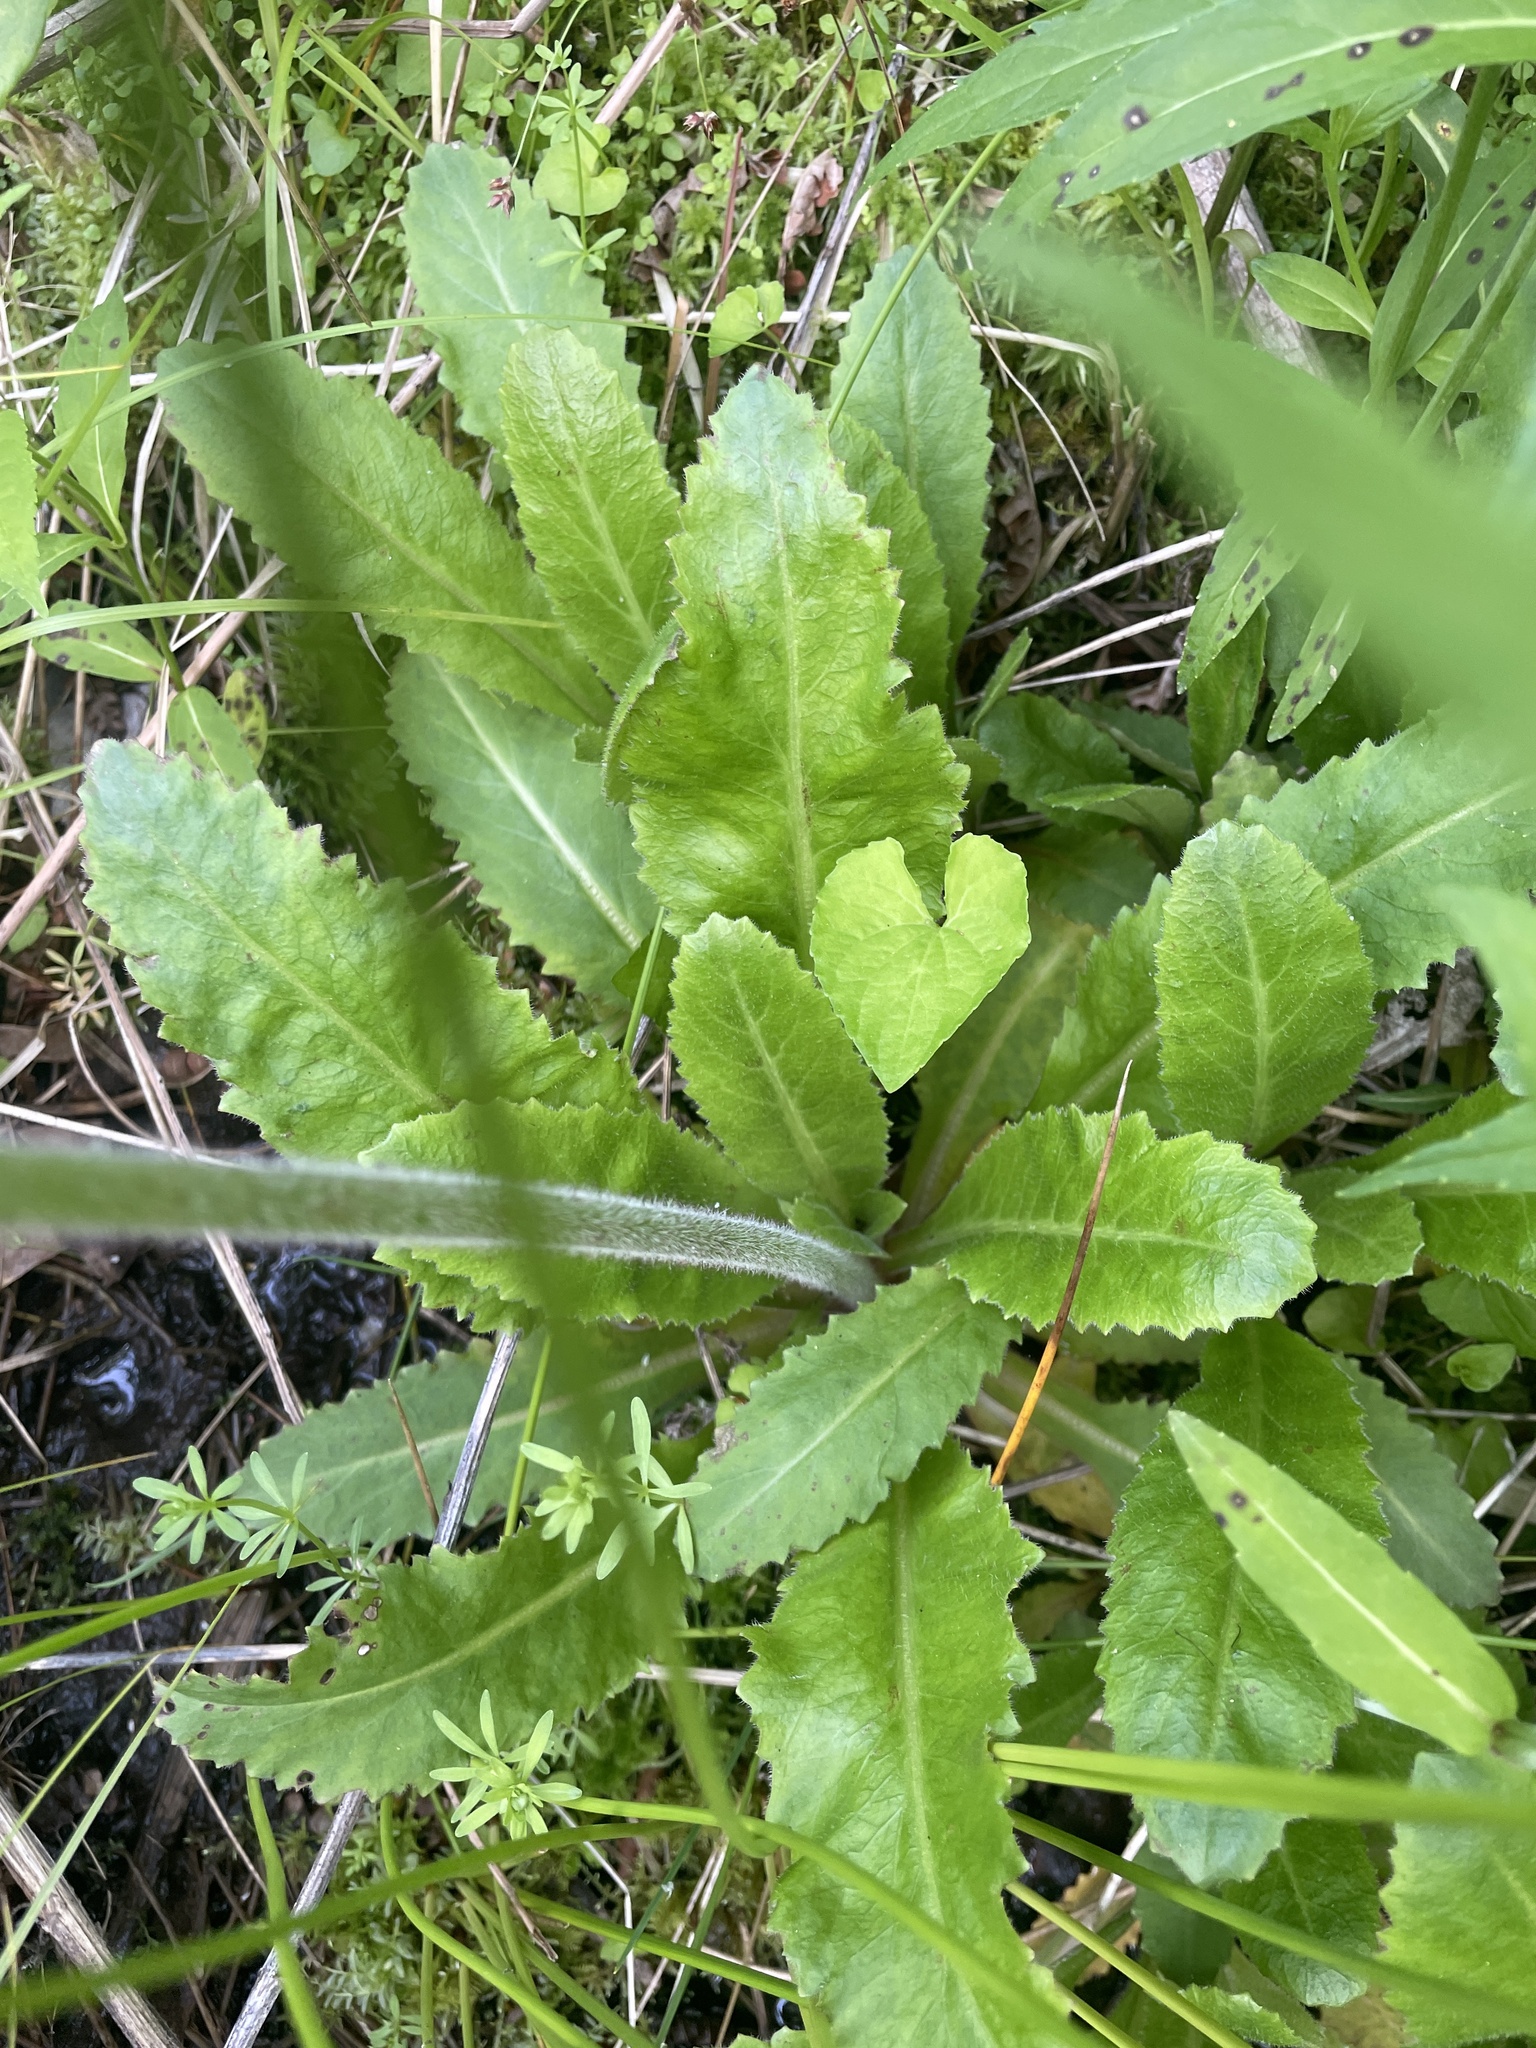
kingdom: Plantae
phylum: Tracheophyta
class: Magnoliopsida
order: Saxifragales
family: Saxifragaceae
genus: Micranthes
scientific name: Micranthes micranthidifolia
